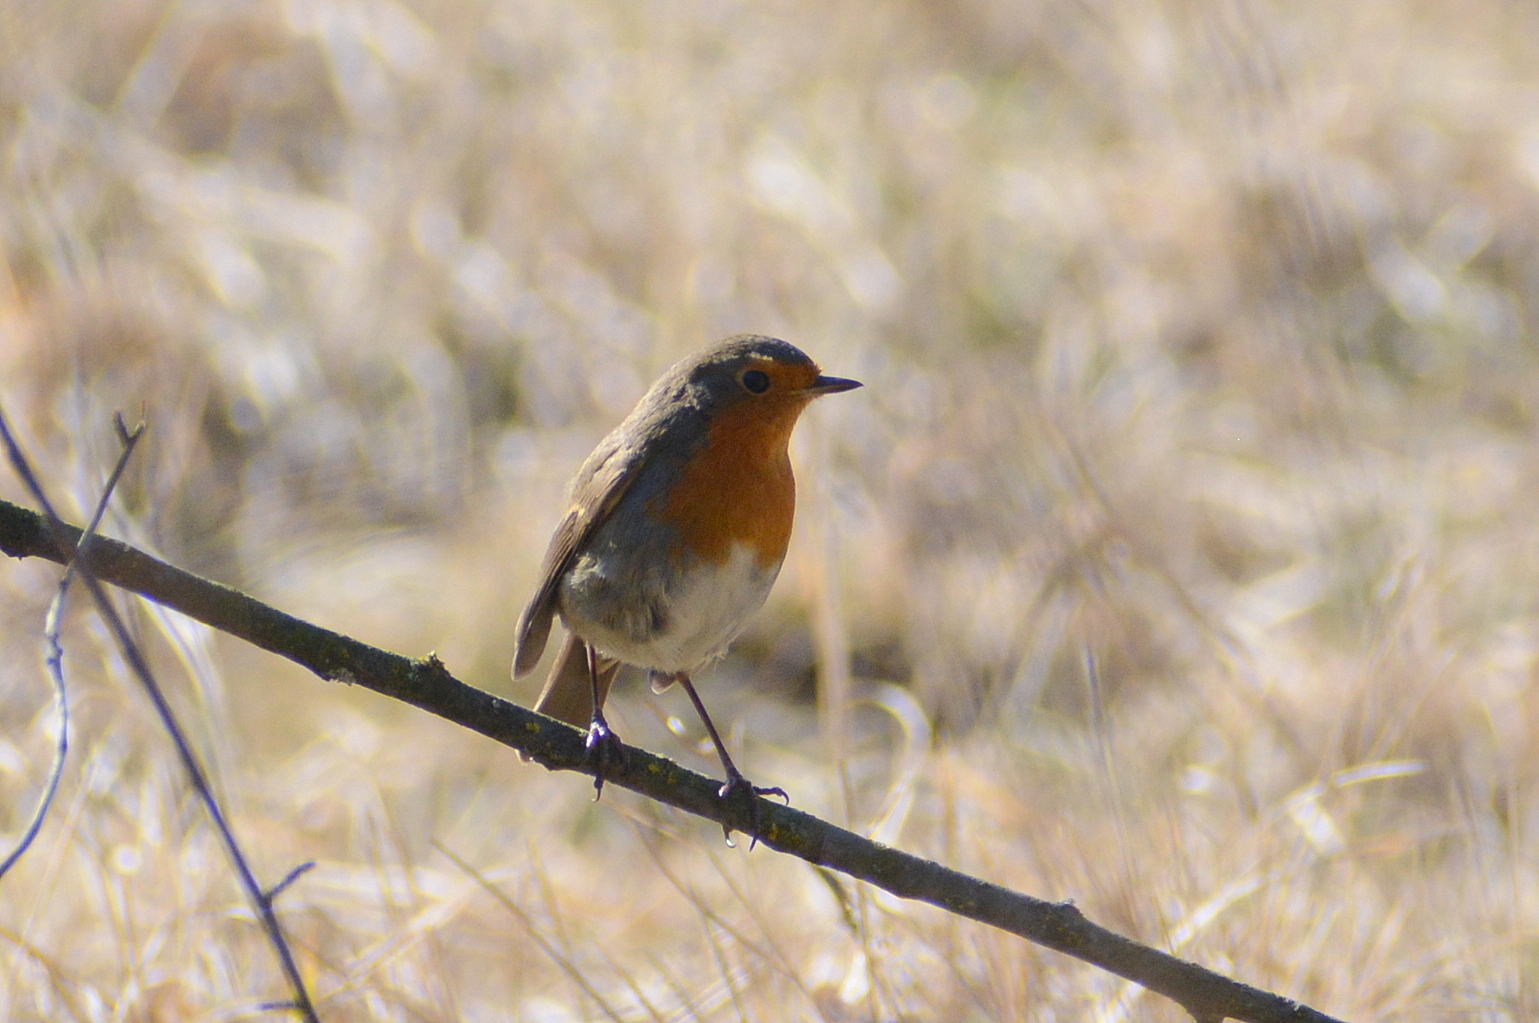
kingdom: Animalia
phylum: Chordata
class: Aves
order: Passeriformes
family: Muscicapidae
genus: Erithacus
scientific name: Erithacus rubecula
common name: European robin
